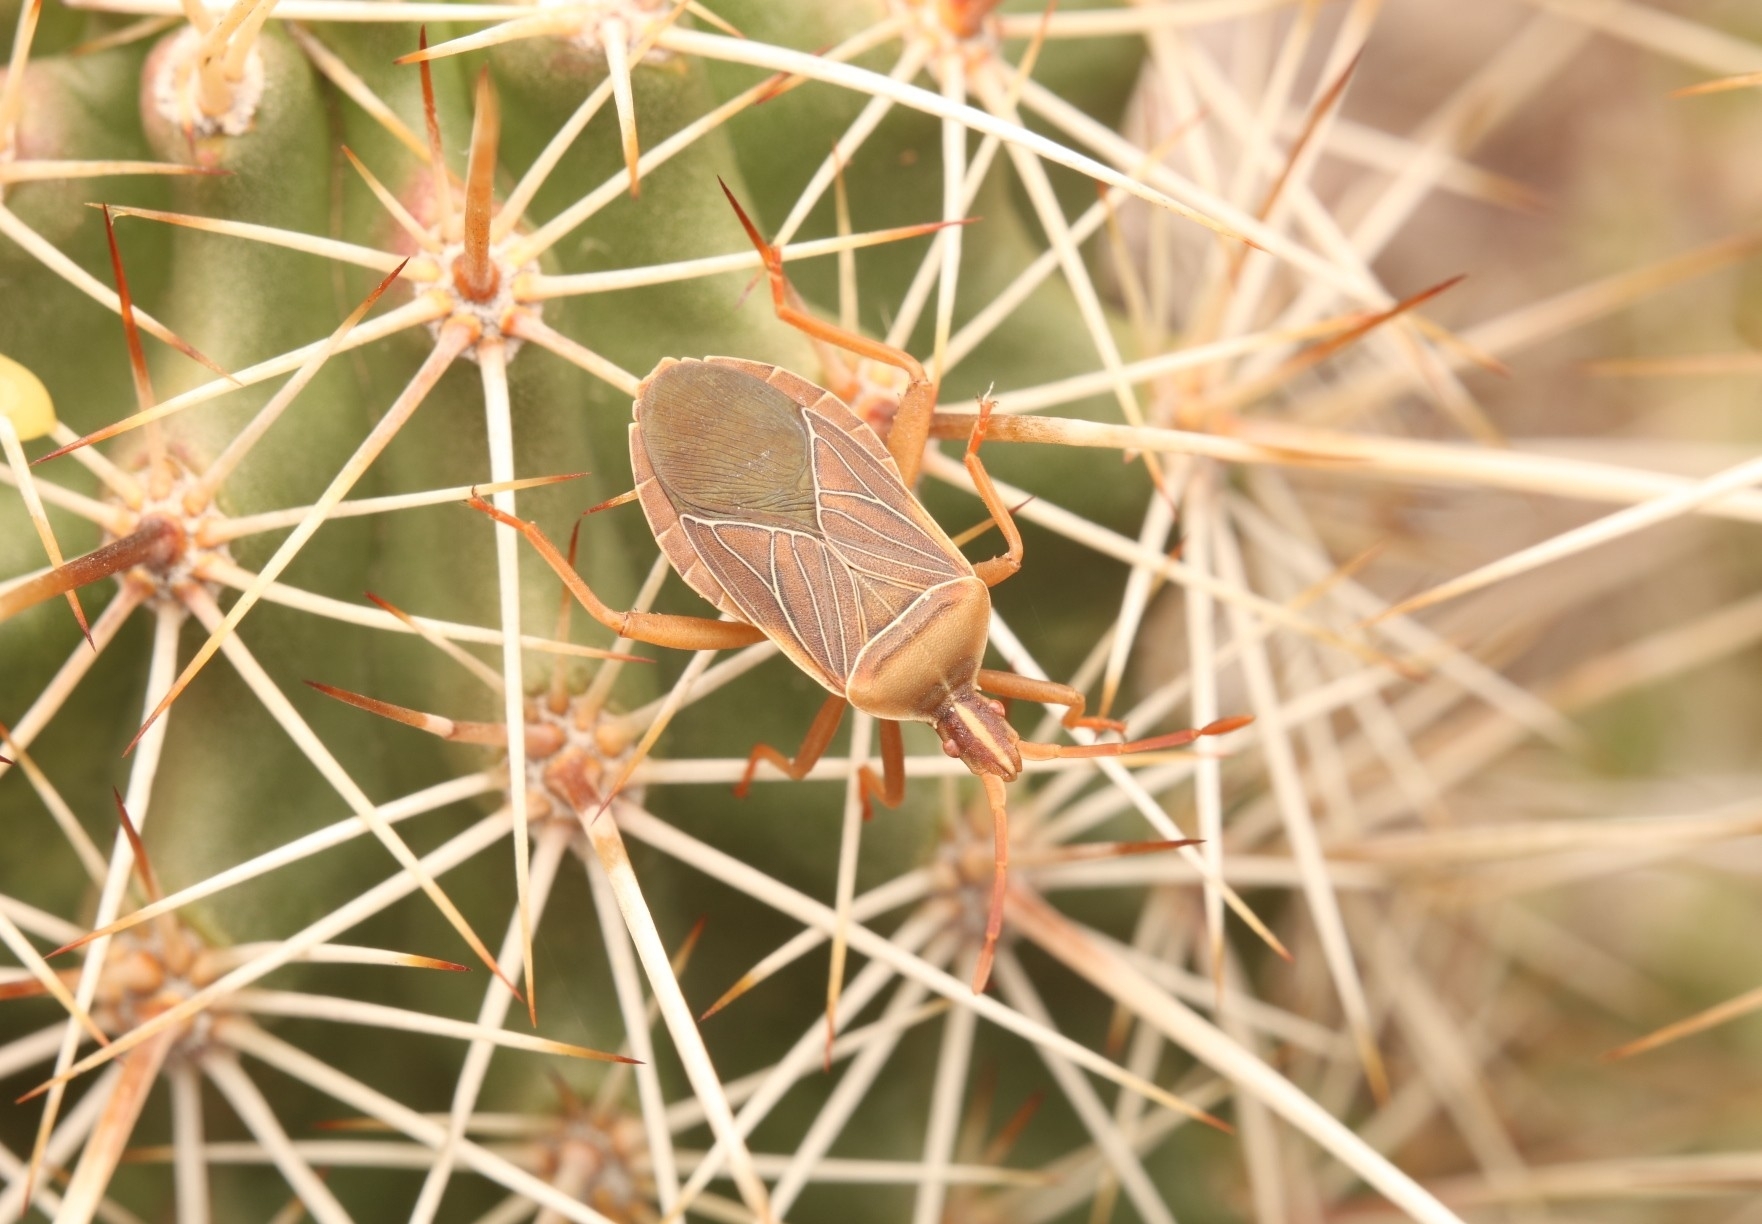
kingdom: Animalia
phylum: Arthropoda
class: Insecta
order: Hemiptera
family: Coreidae
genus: Chelinidea
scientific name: Chelinidea vittiger
